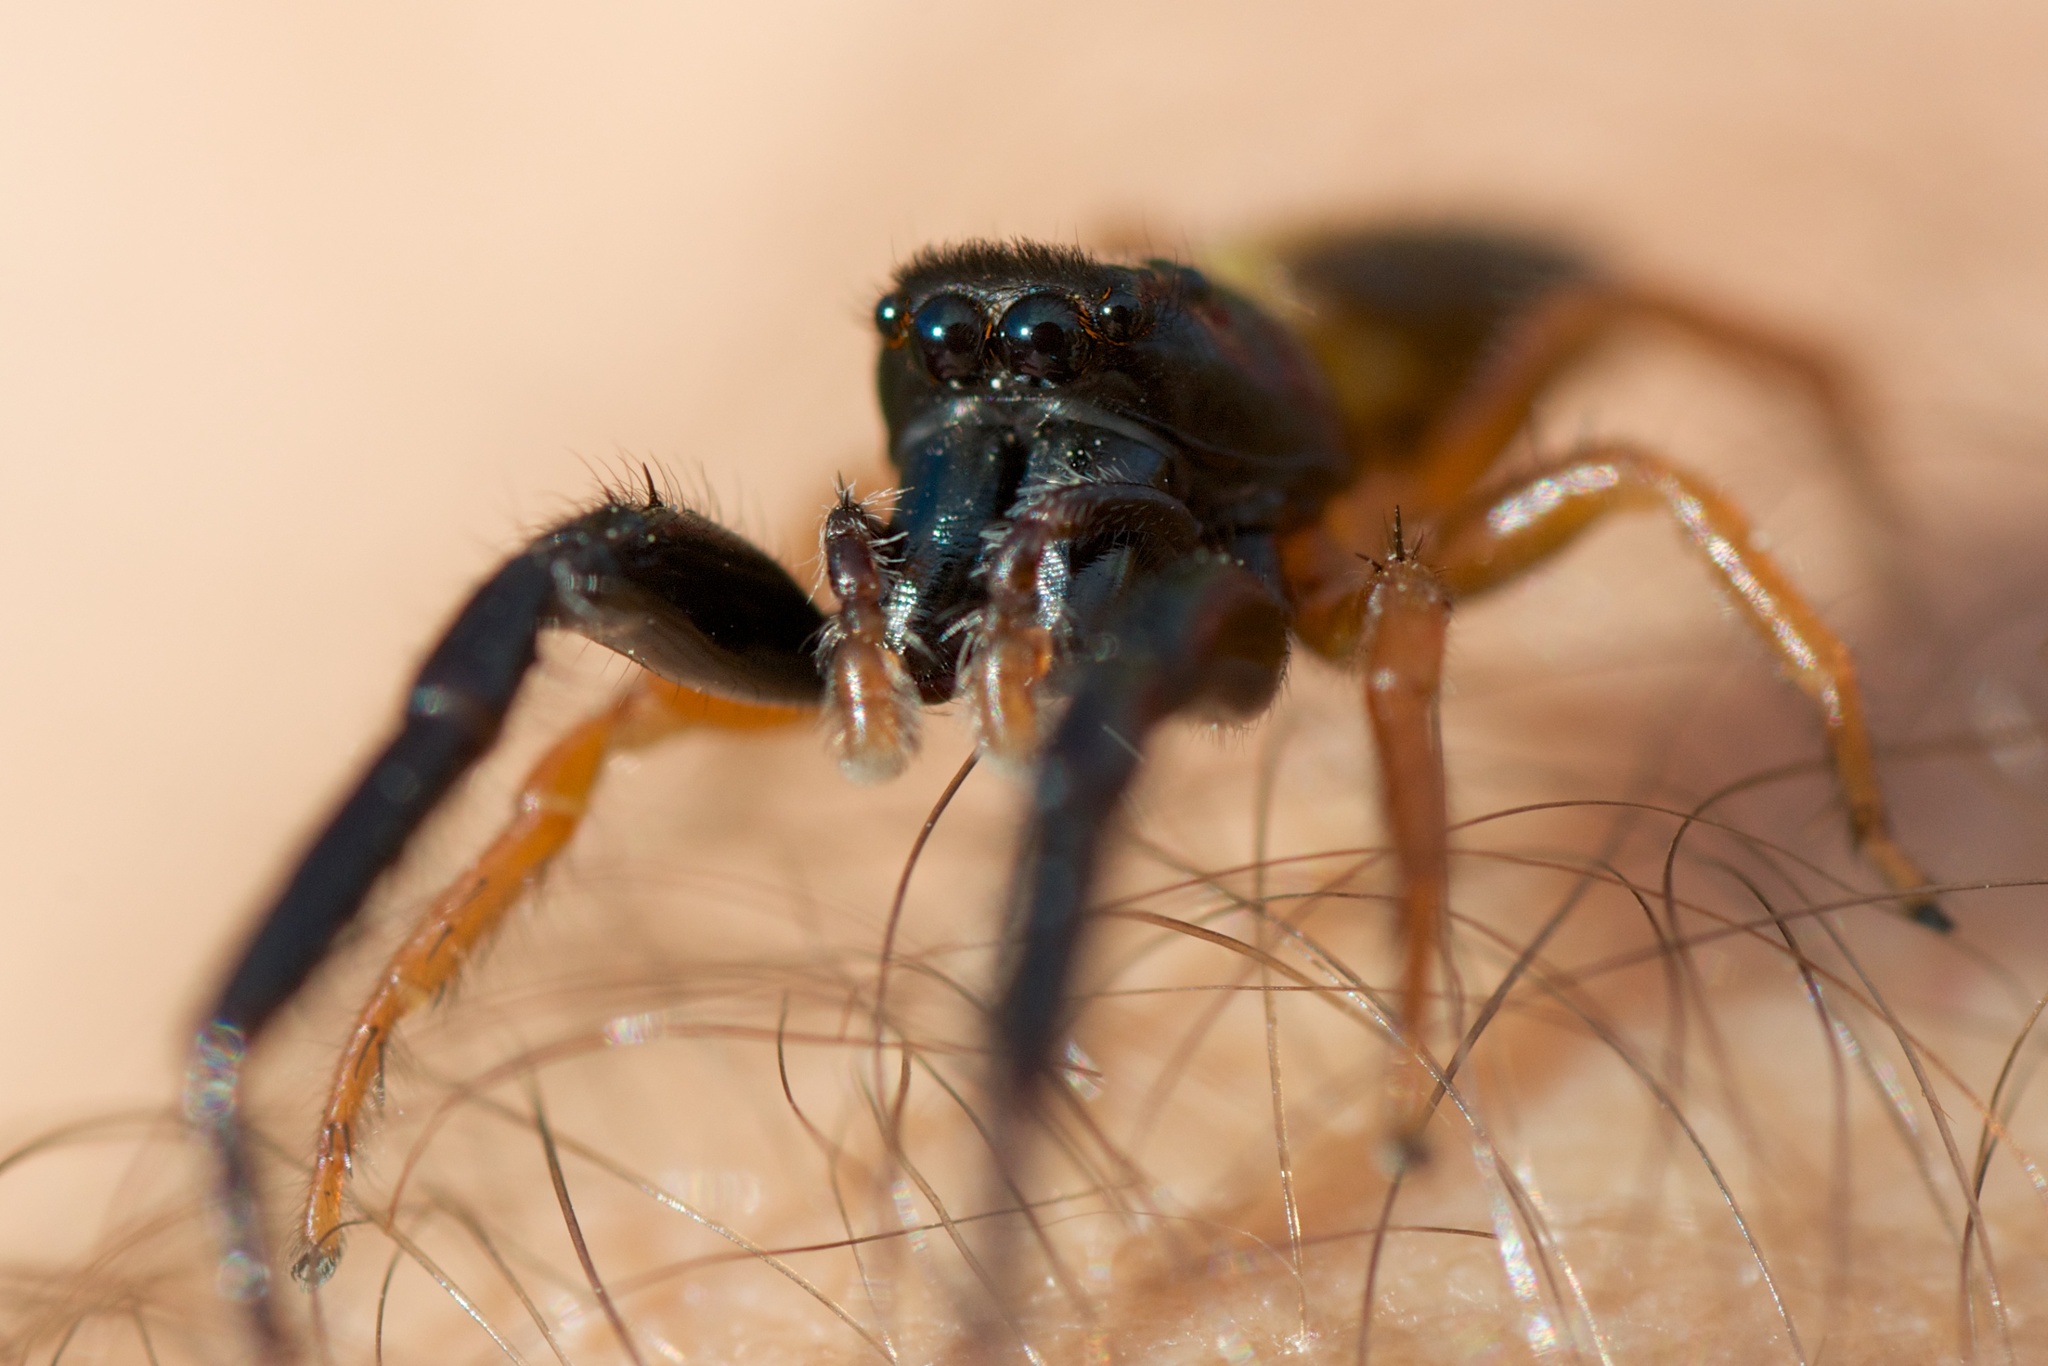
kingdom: Animalia
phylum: Arthropoda
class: Arachnida
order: Araneae
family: Salticidae
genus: Trite
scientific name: Trite planiceps
